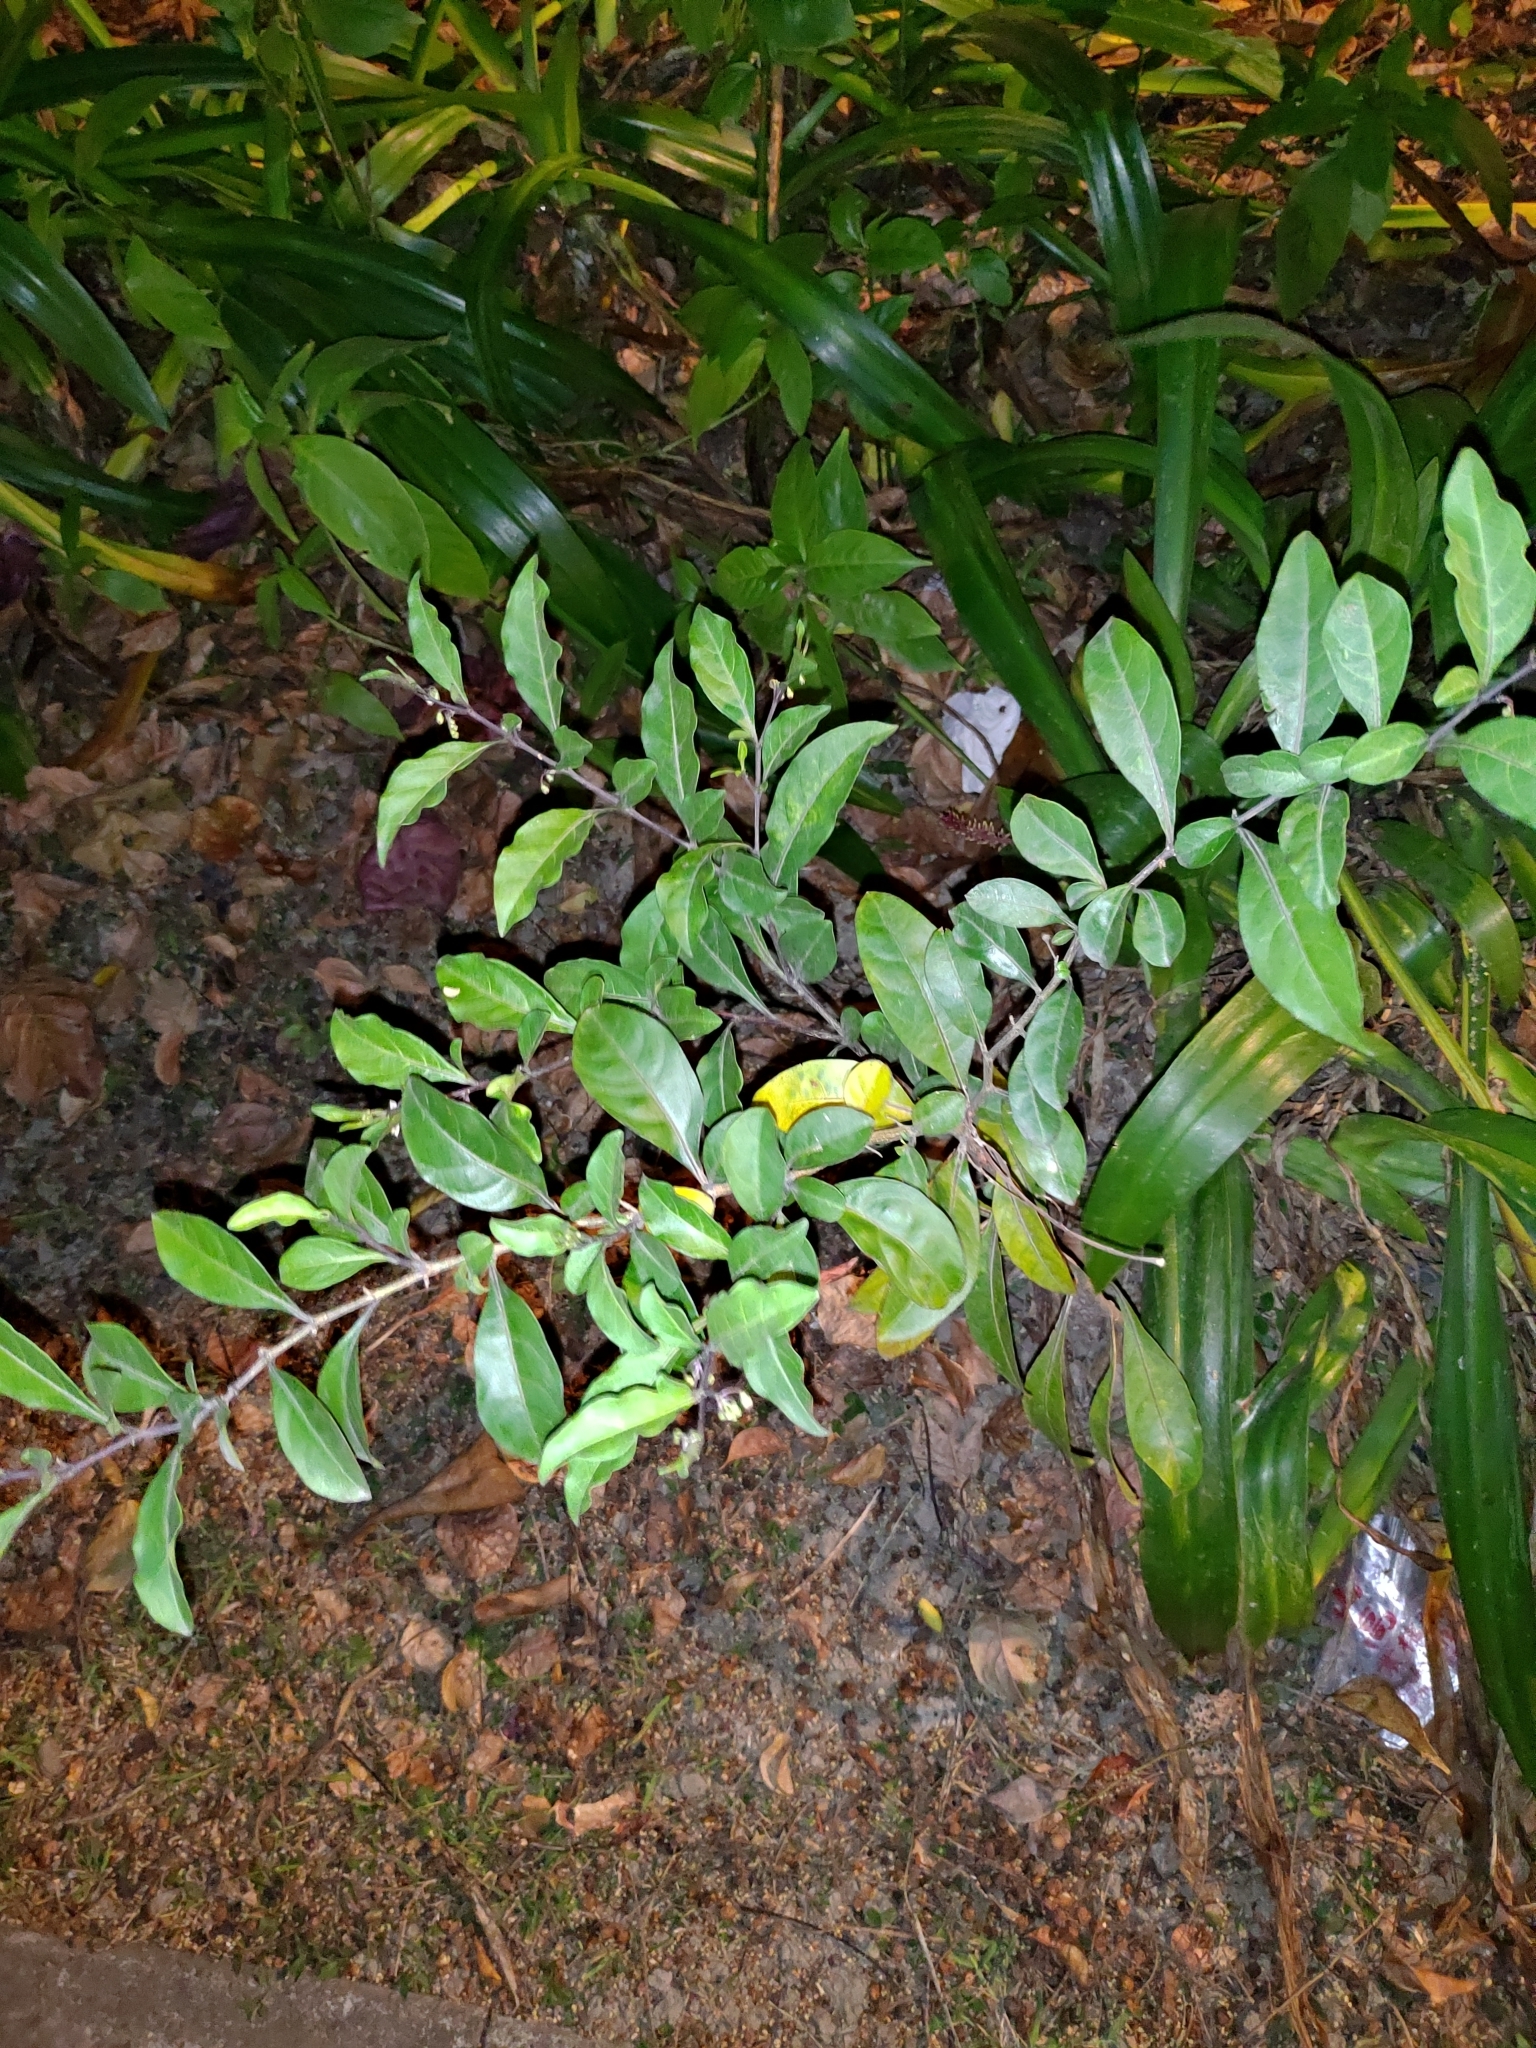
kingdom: Plantae
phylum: Tracheophyta
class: Magnoliopsida
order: Solanales
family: Solanaceae
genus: Solanum
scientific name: Solanum diphyllum
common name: Twoleaf nightshade
